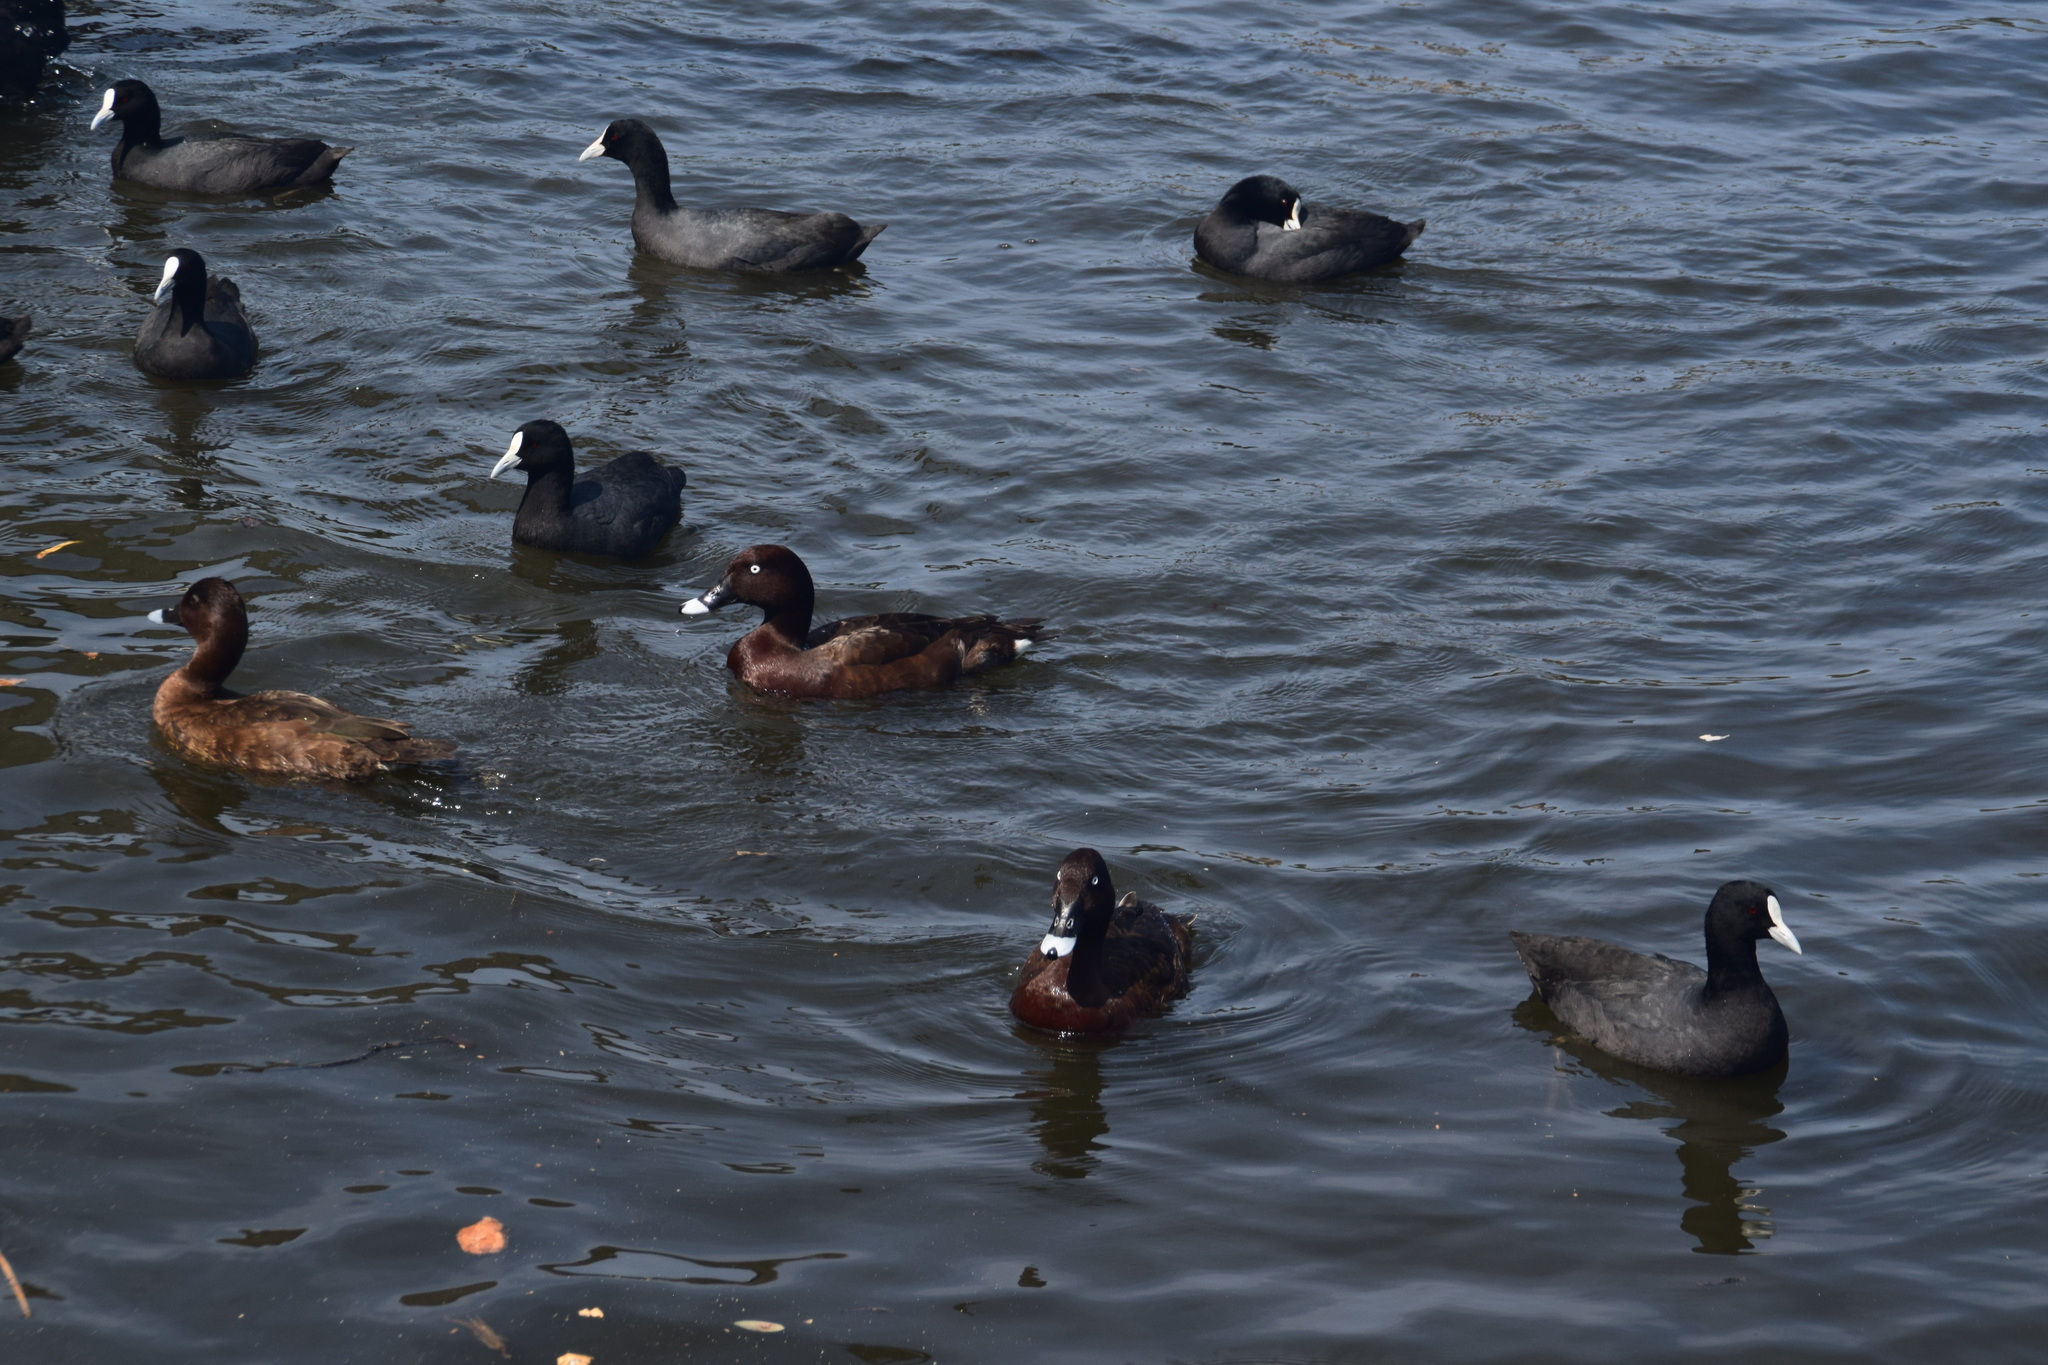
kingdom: Animalia
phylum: Chordata
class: Aves
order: Gruiformes
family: Rallidae
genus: Fulica
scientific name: Fulica atra
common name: Eurasian coot
